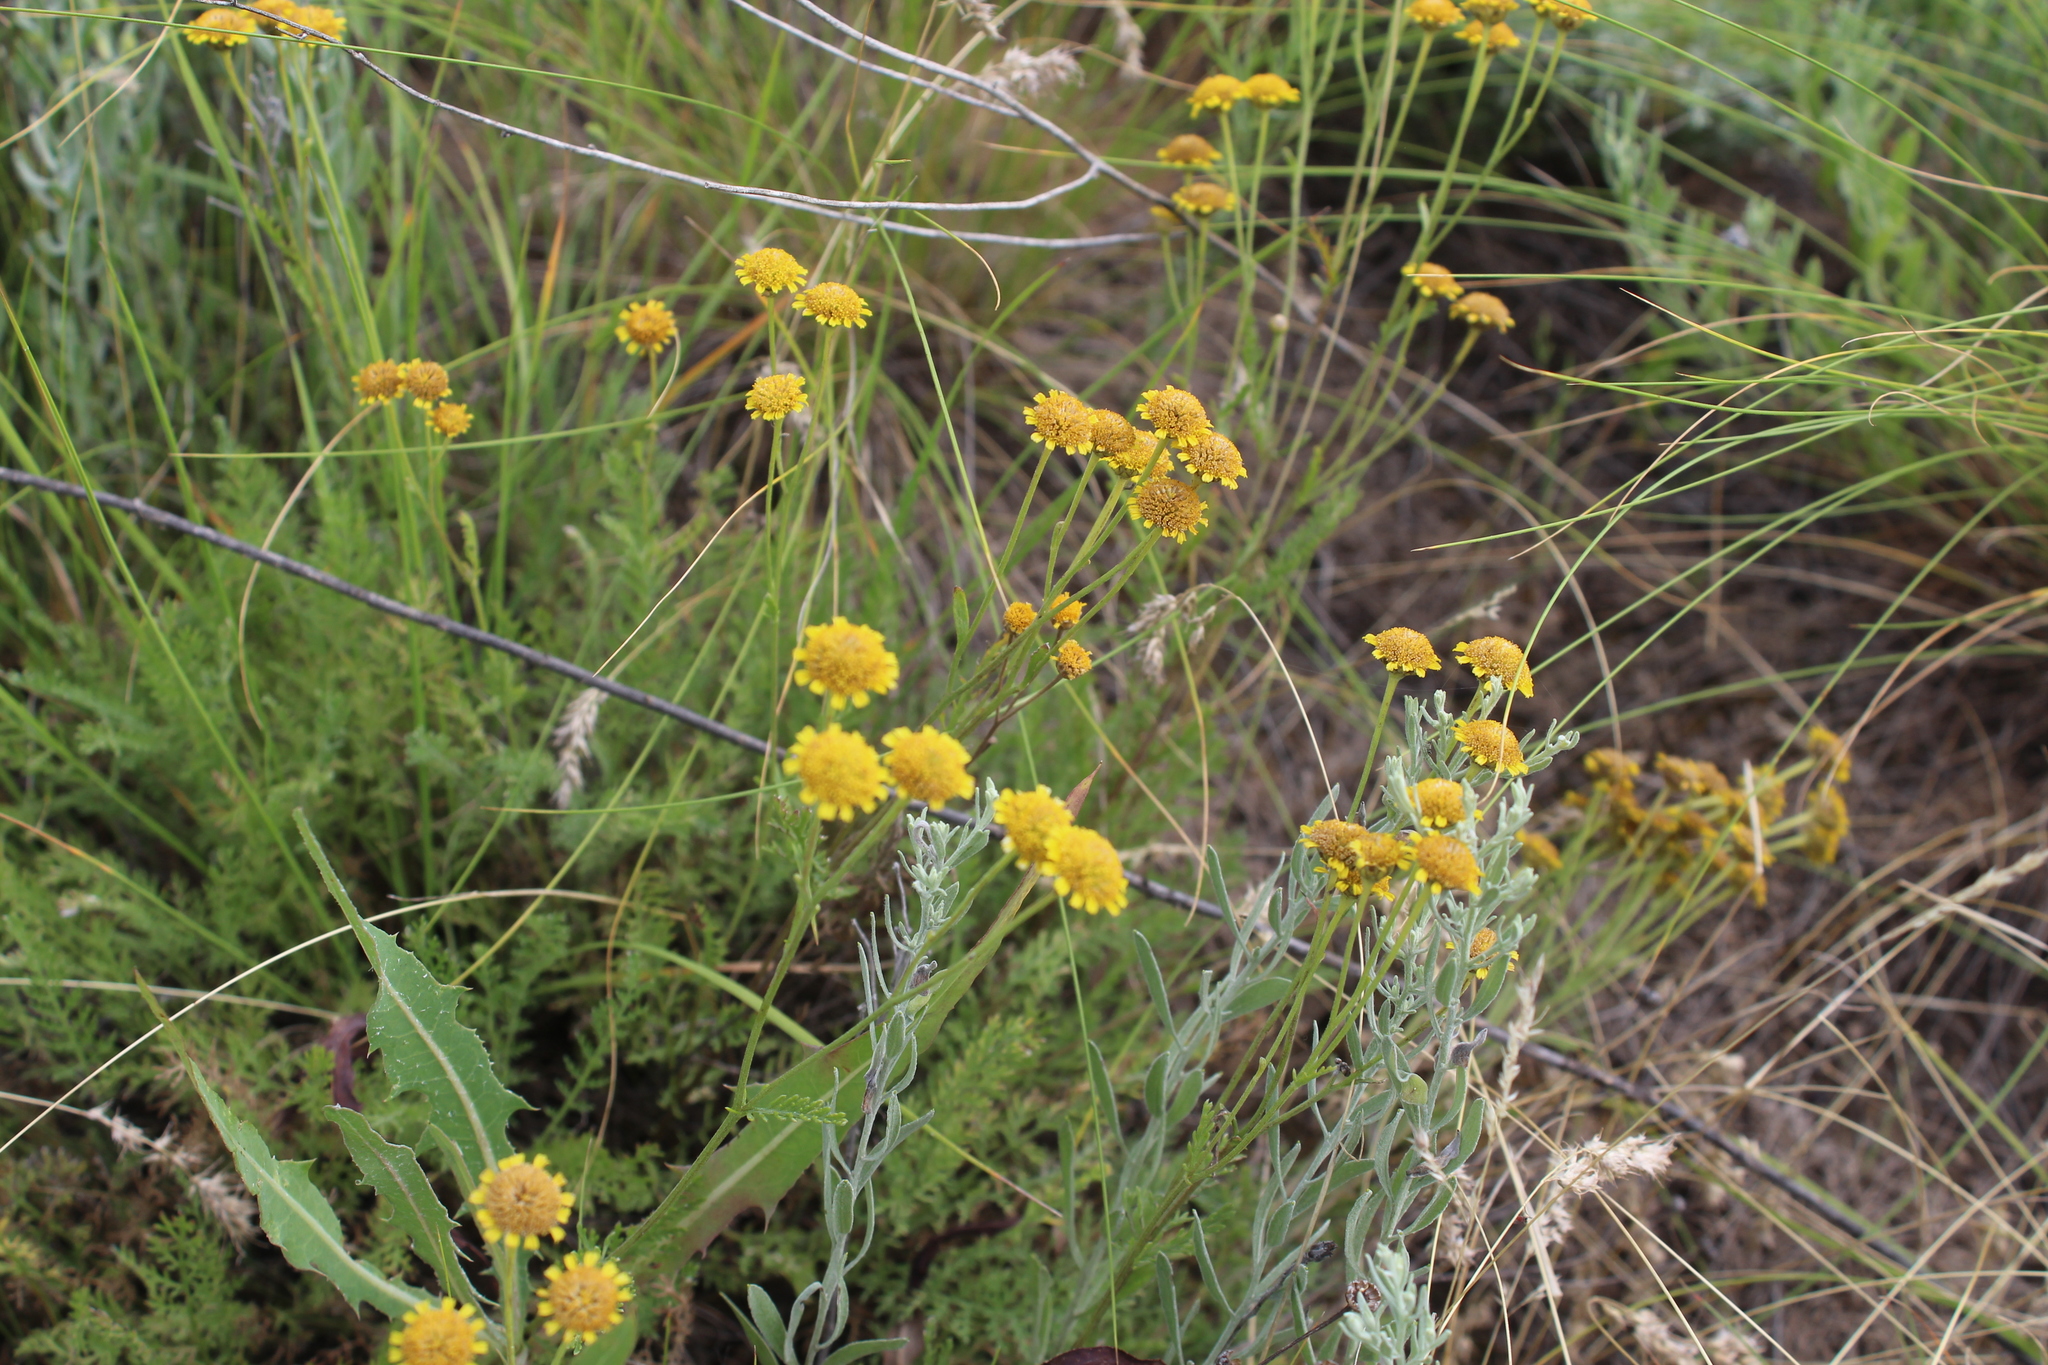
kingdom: Plantae
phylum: Tracheophyta
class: Magnoliopsida
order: Asterales
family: Asteraceae
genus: Tanacetum
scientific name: Tanacetum millefolium
